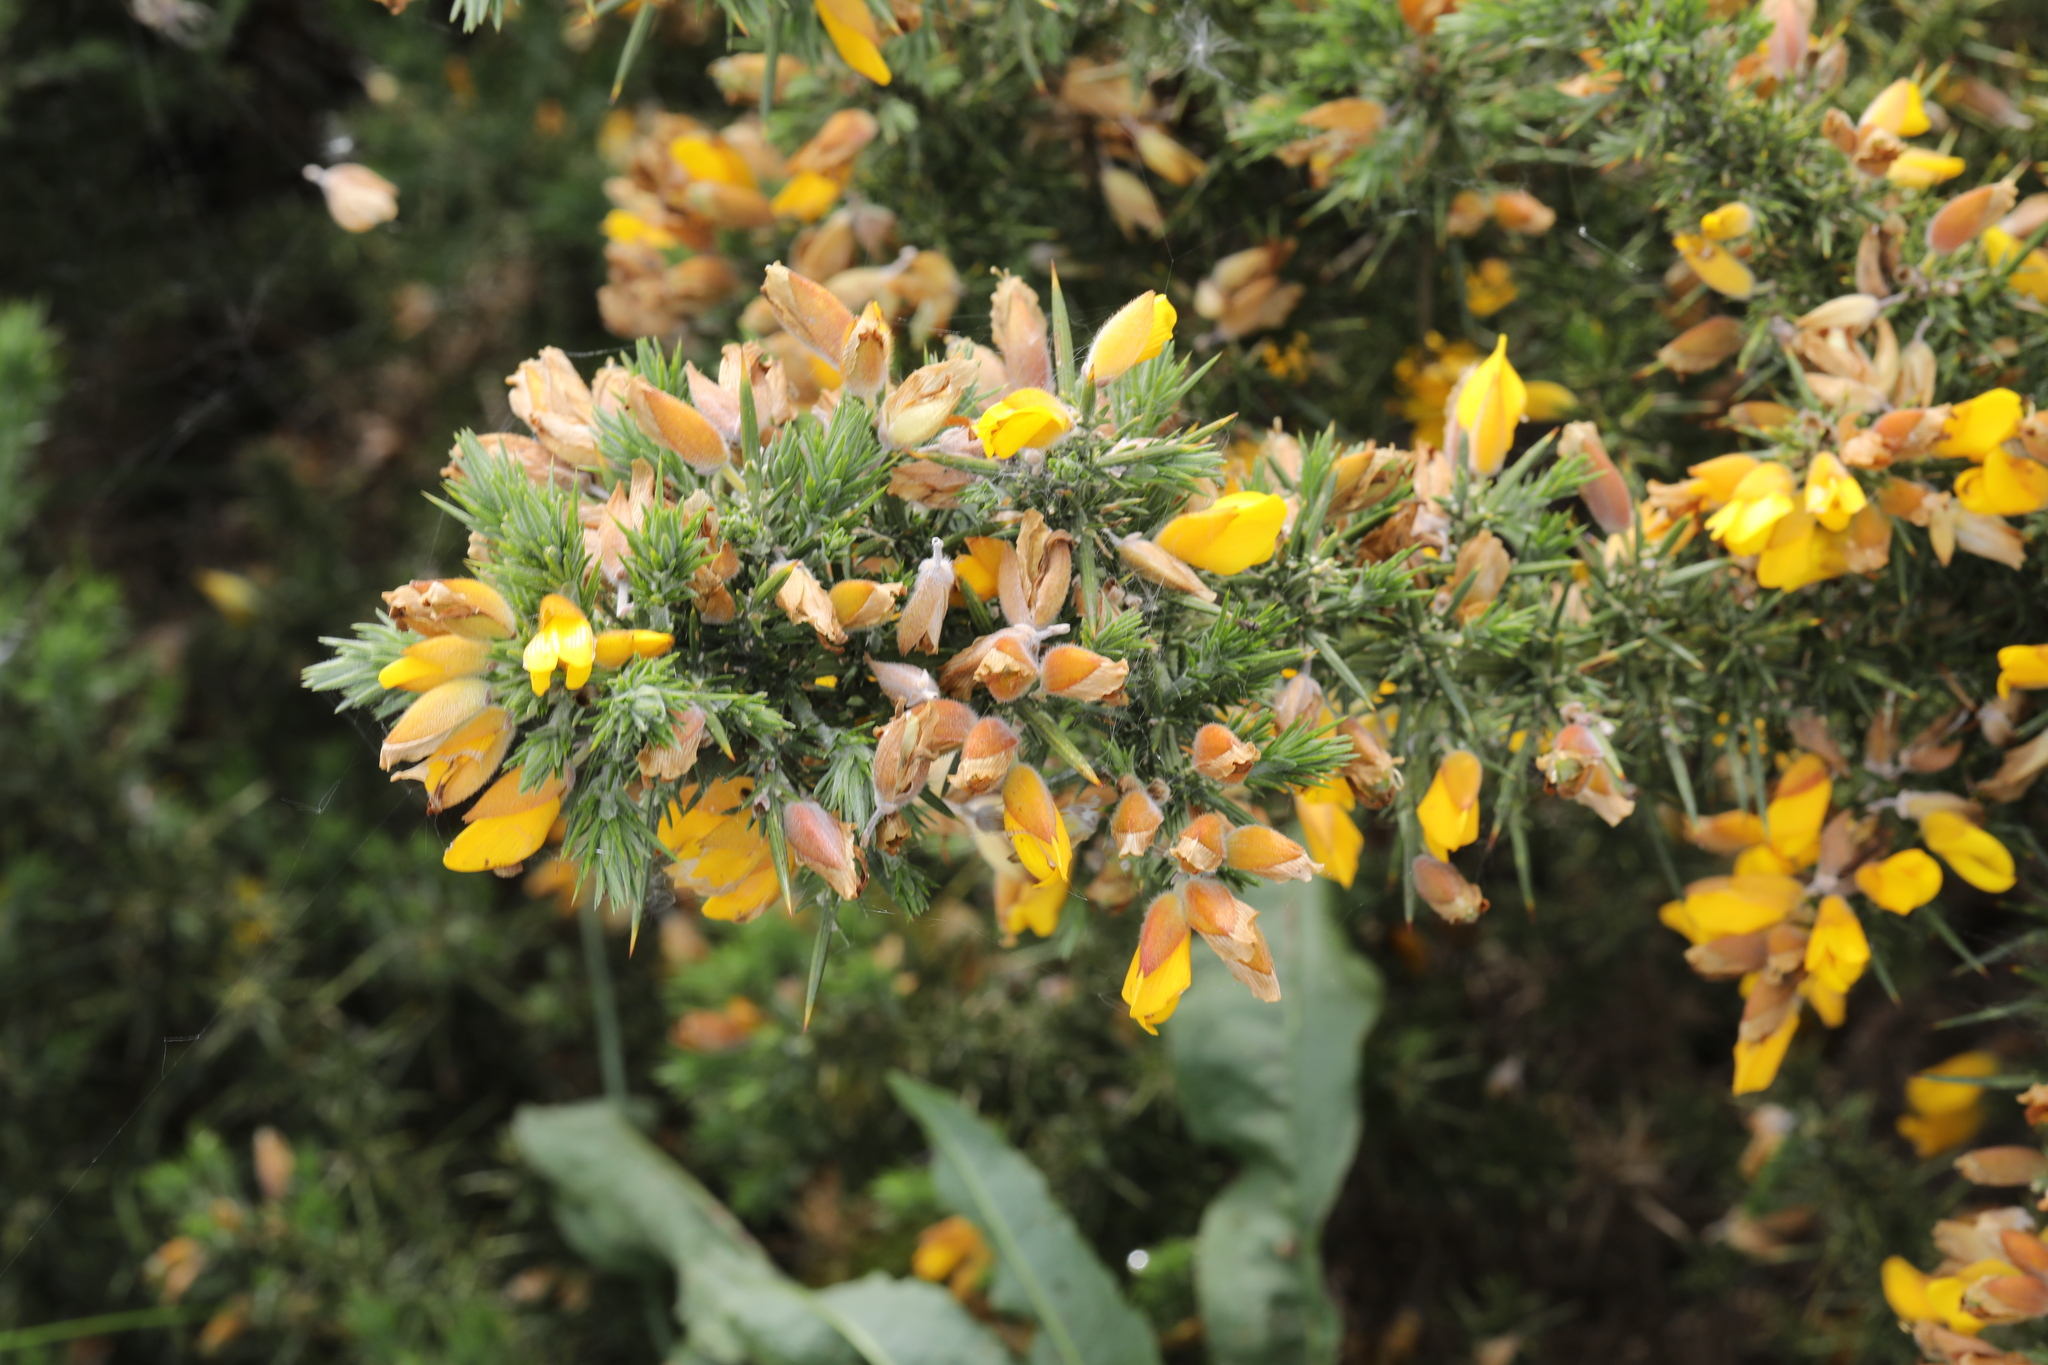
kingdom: Plantae
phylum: Tracheophyta
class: Magnoliopsida
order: Fabales
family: Fabaceae
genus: Ulex
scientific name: Ulex europaeus
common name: Common gorse
